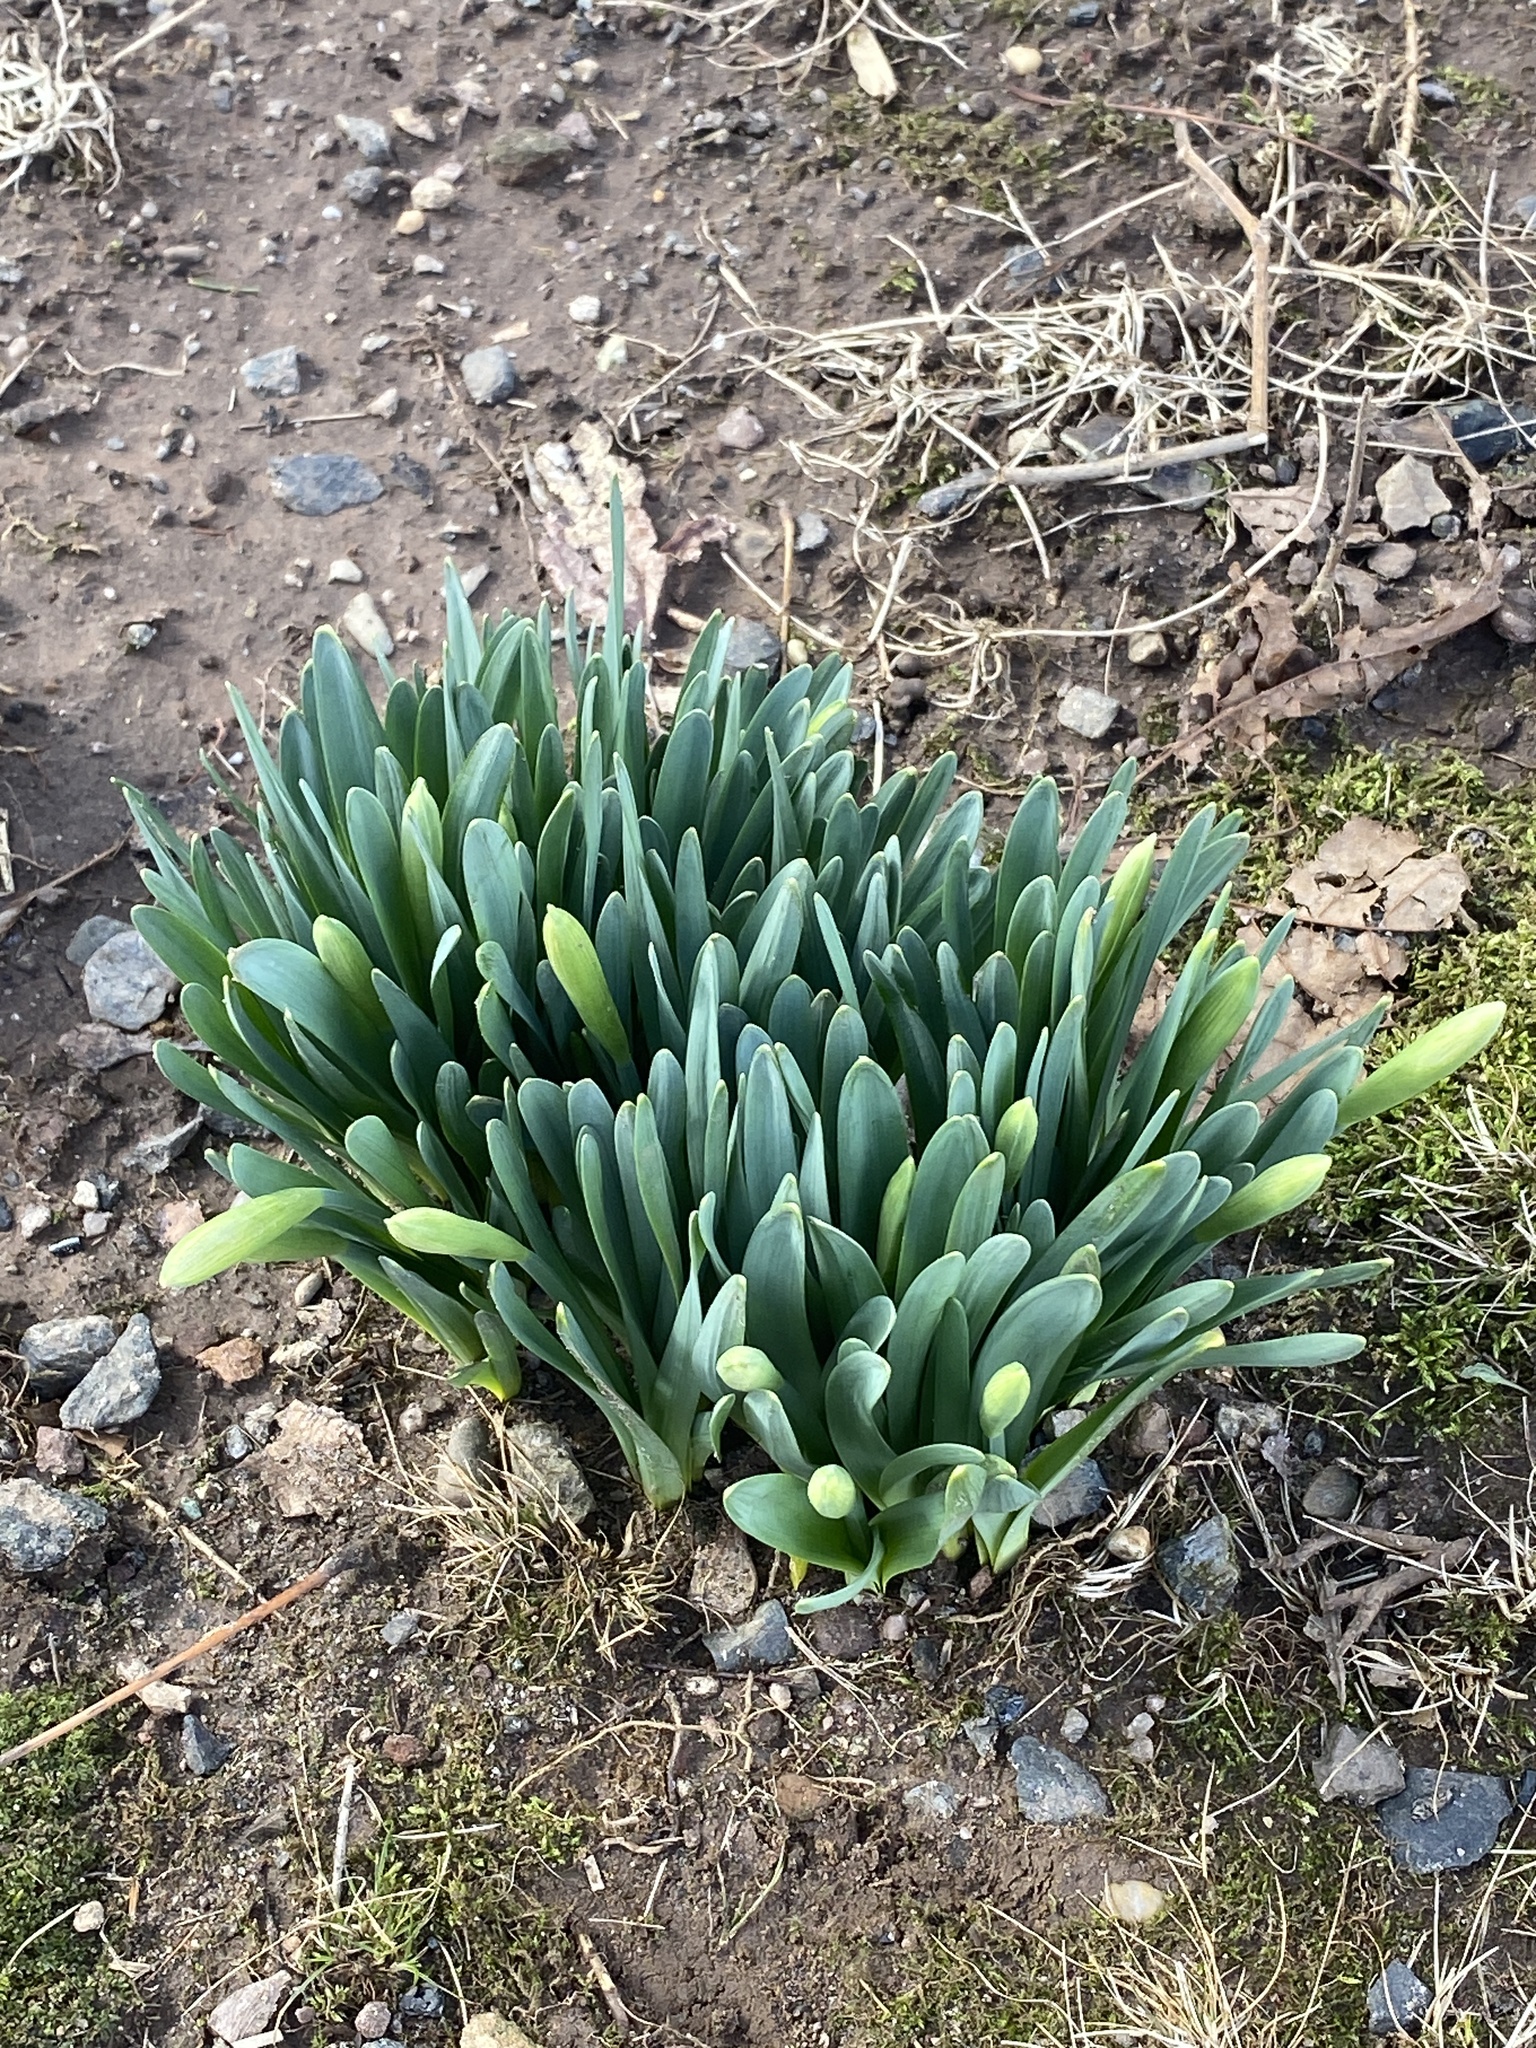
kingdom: Plantae
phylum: Tracheophyta
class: Liliopsida
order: Asparagales
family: Amaryllidaceae
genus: Narcissus
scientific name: Narcissus
